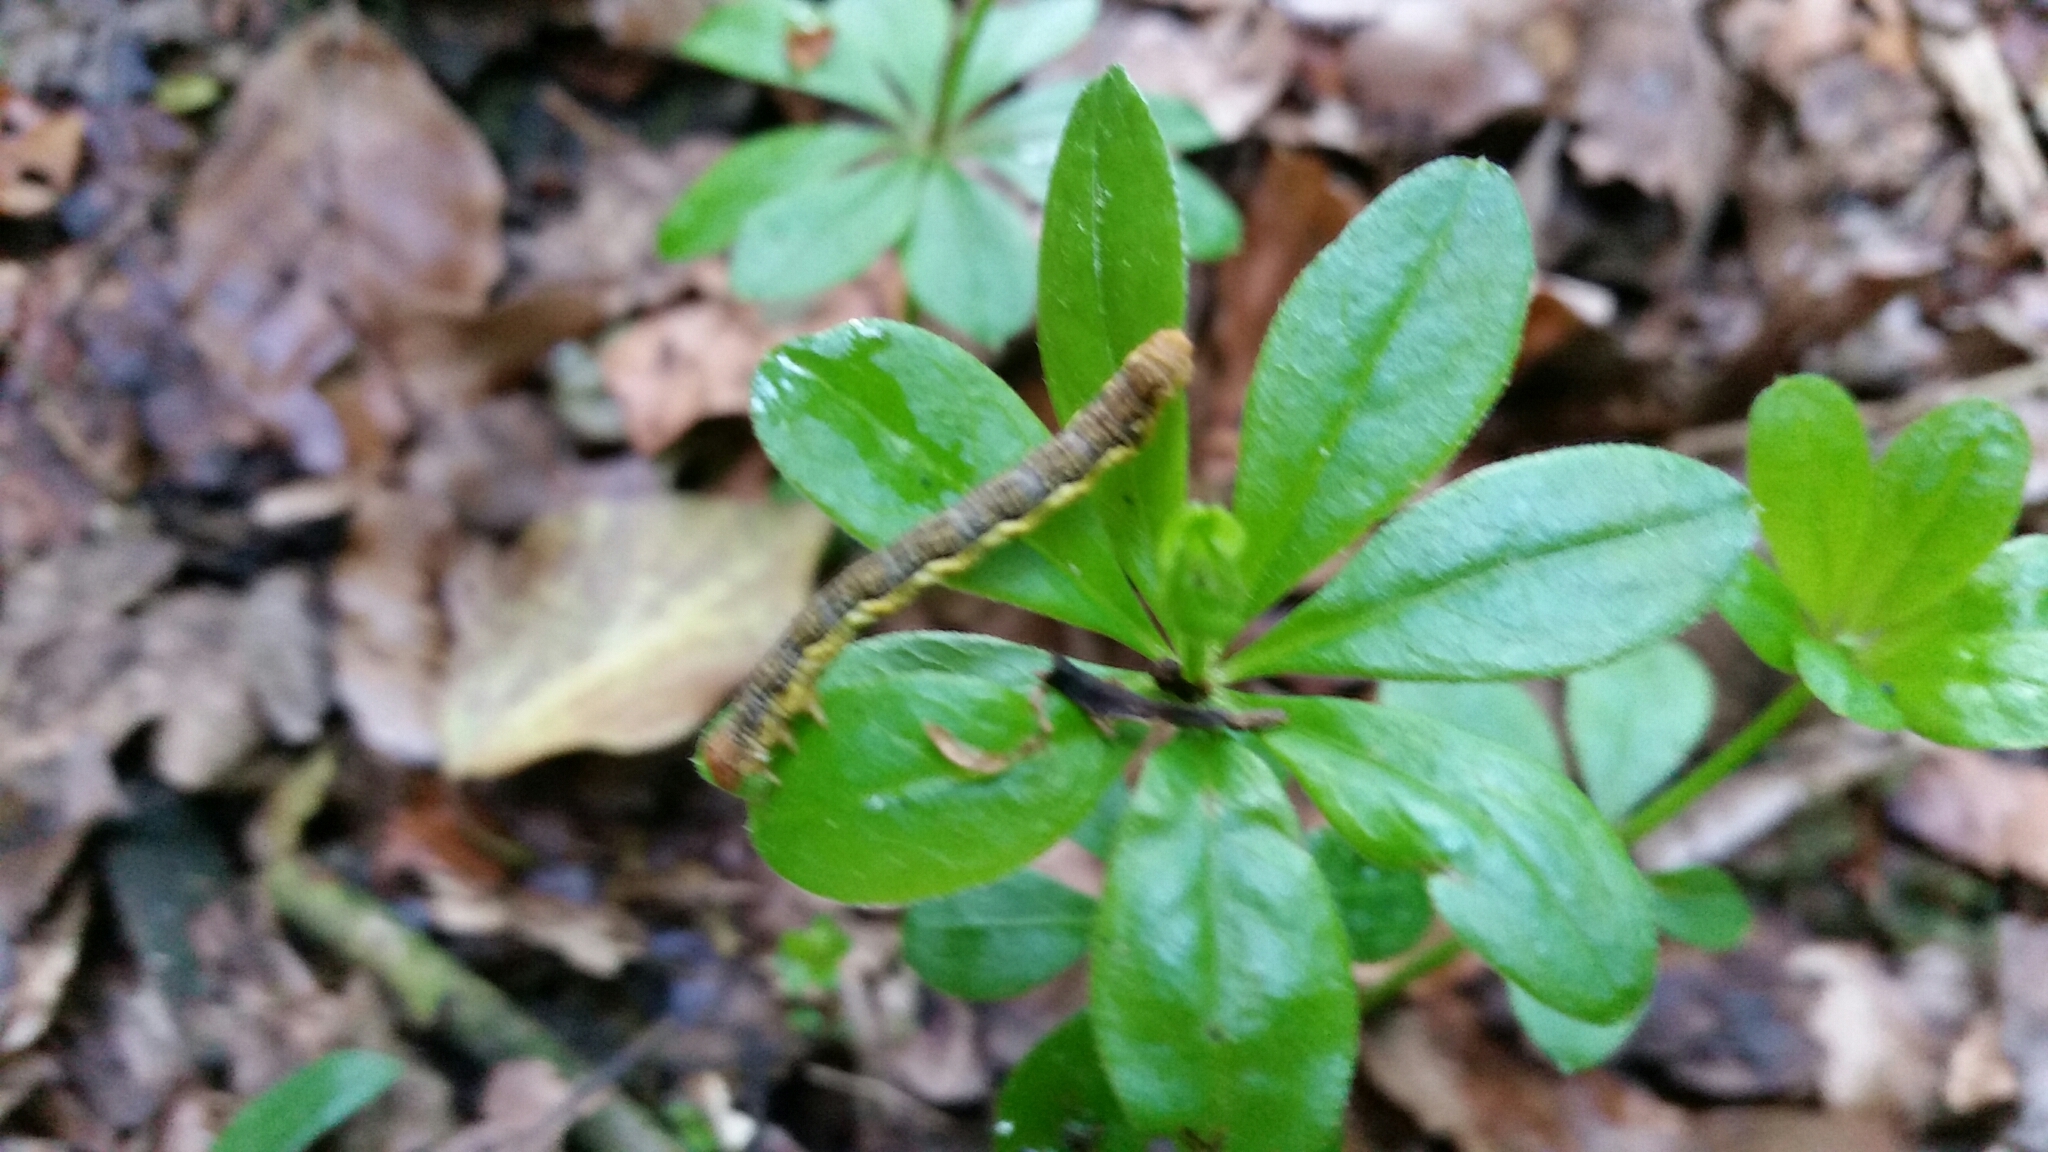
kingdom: Animalia
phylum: Arthropoda
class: Insecta
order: Lepidoptera
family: Geometridae
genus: Erannis
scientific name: Erannis defoliaria
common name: Mottled umber
